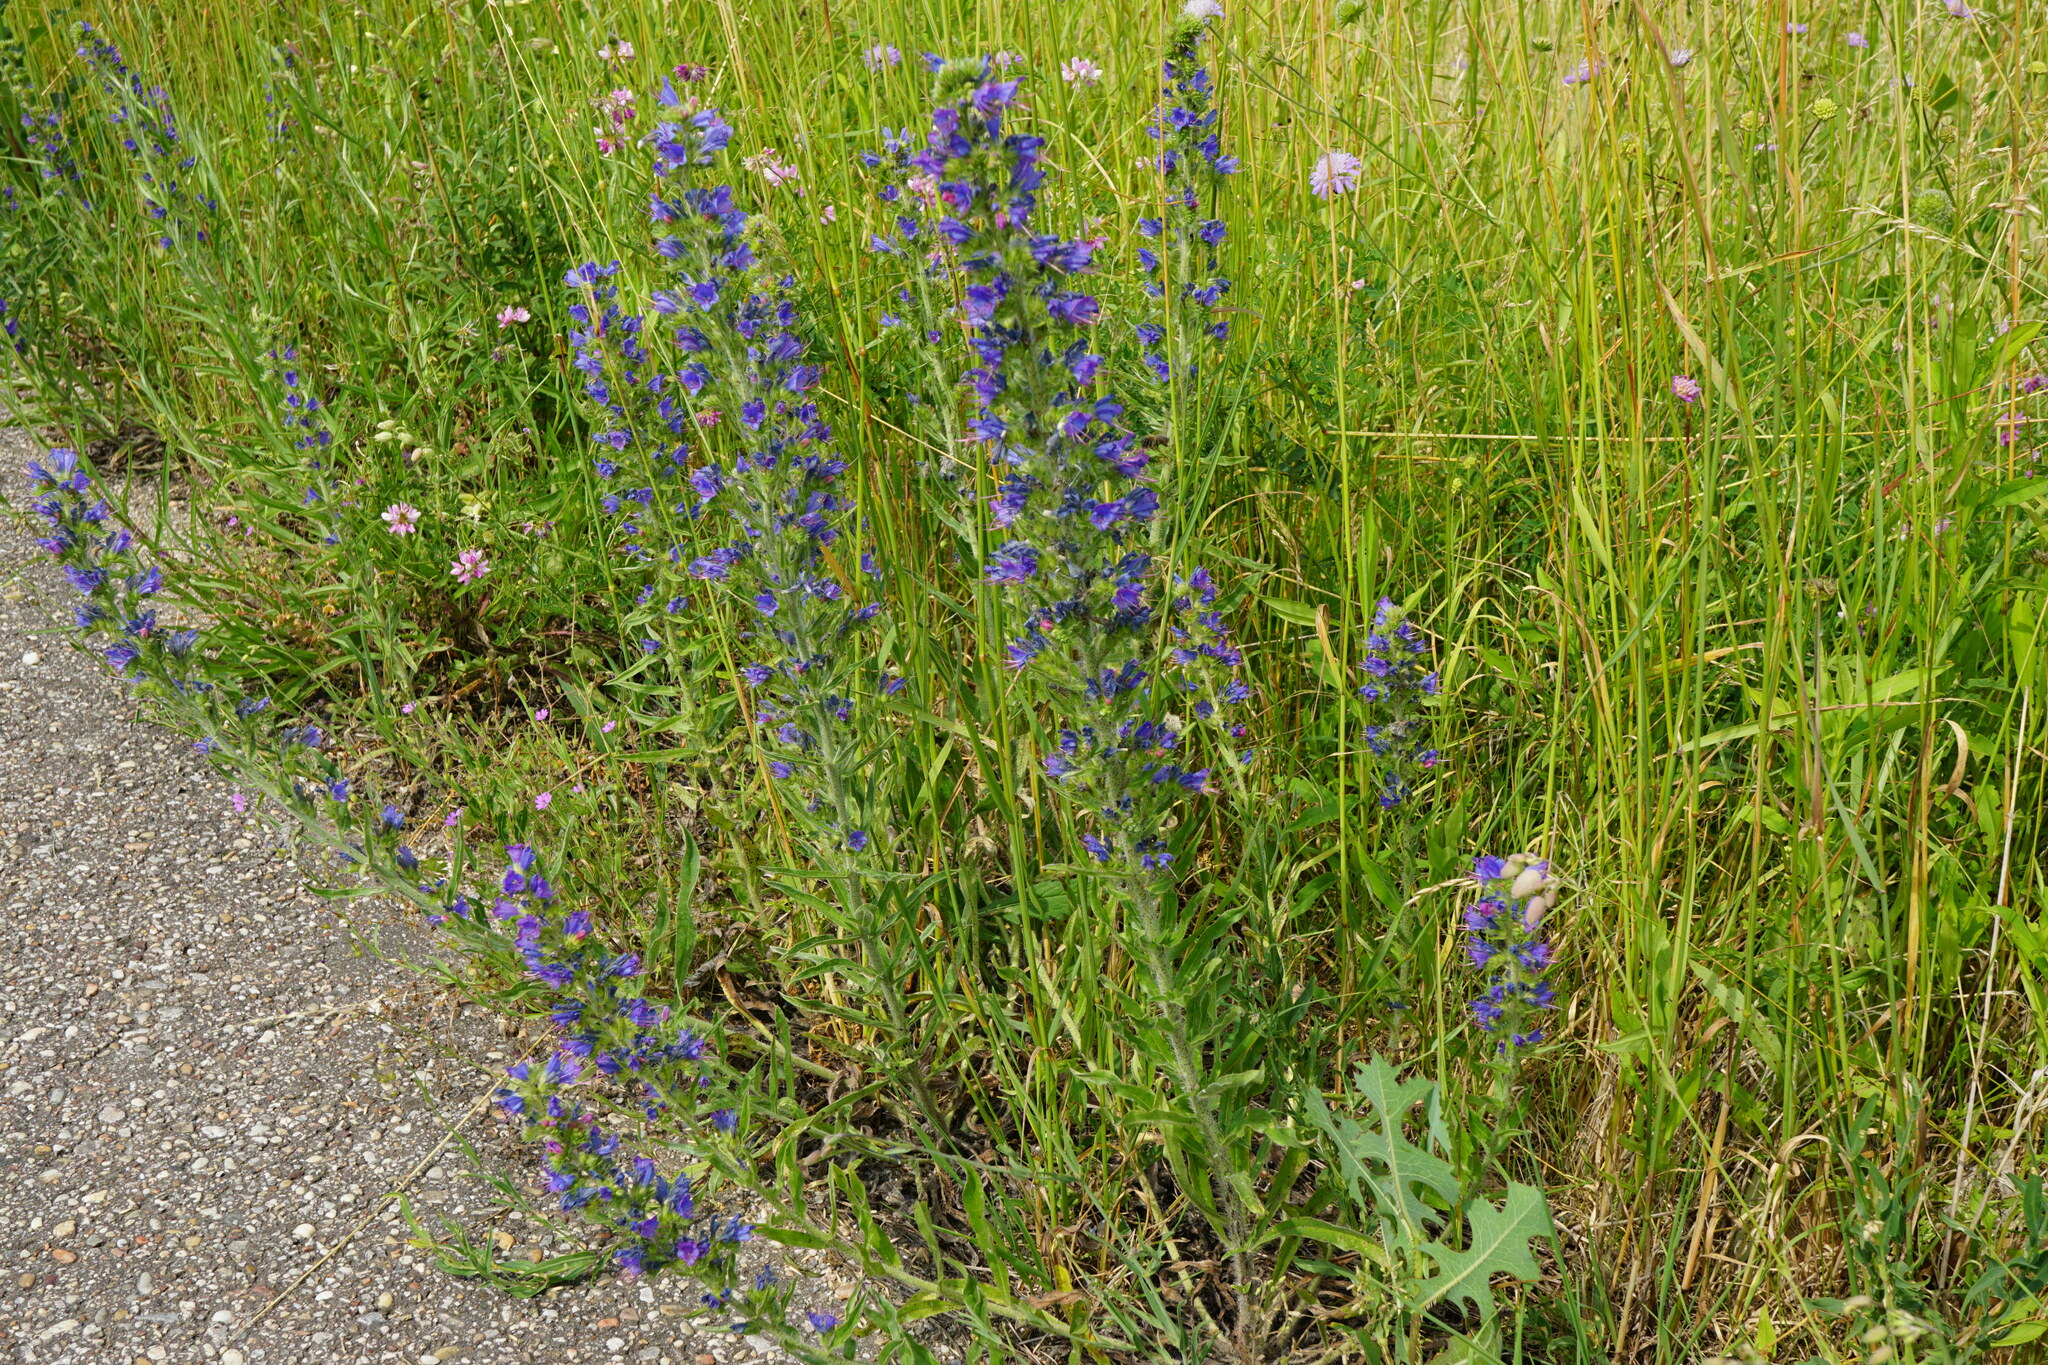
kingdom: Plantae
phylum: Tracheophyta
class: Magnoliopsida
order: Boraginales
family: Boraginaceae
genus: Echium
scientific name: Echium vulgare
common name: Common viper's bugloss
